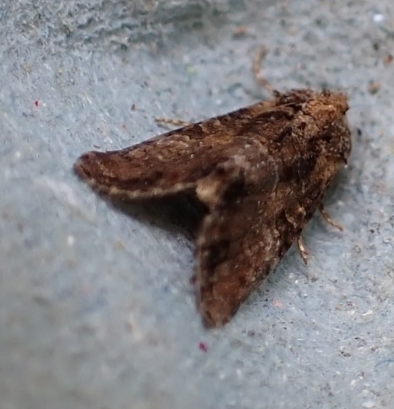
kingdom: Animalia
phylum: Arthropoda
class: Insecta
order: Lepidoptera
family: Noctuidae
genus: Mesoligia
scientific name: Mesoligia furuncula
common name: Cloaked minor
